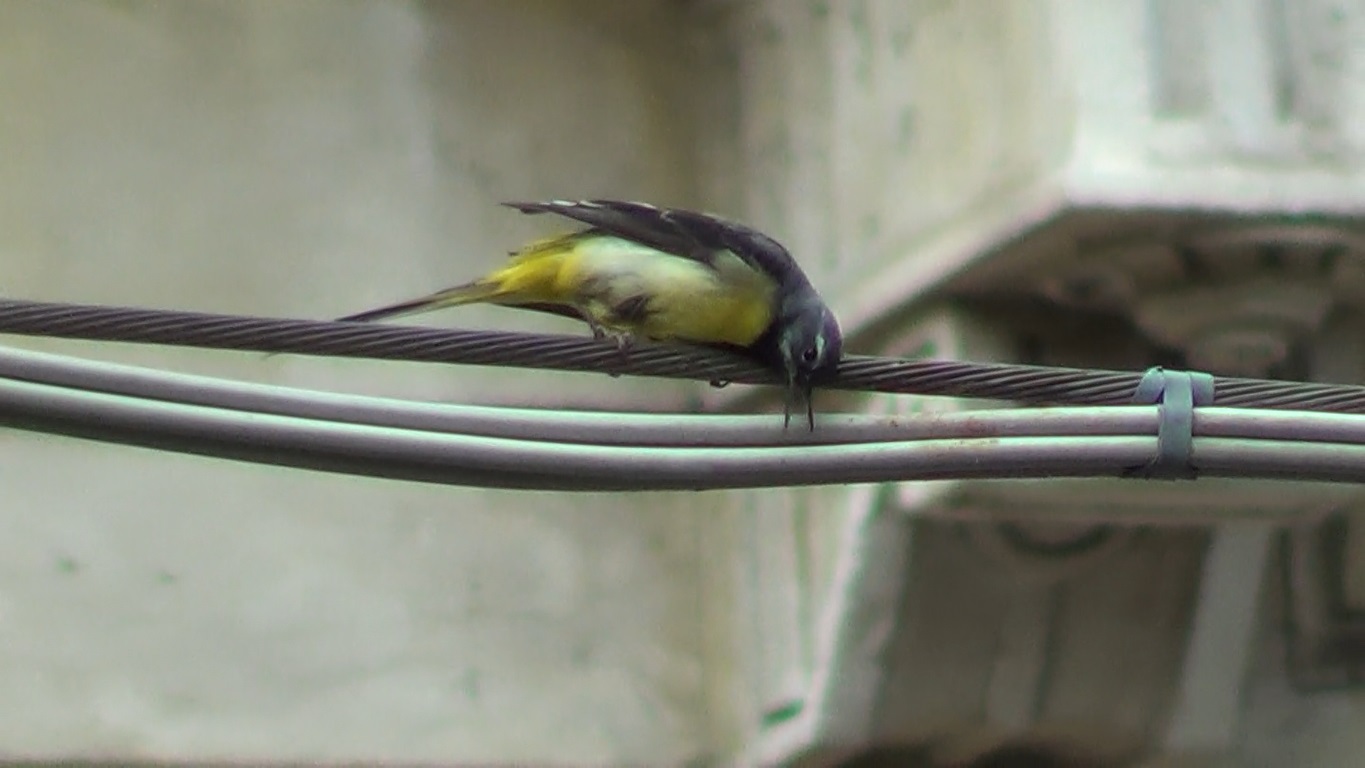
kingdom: Animalia
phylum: Chordata
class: Aves
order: Passeriformes
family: Motacillidae
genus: Motacilla
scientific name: Motacilla cinerea
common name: Grey wagtail
